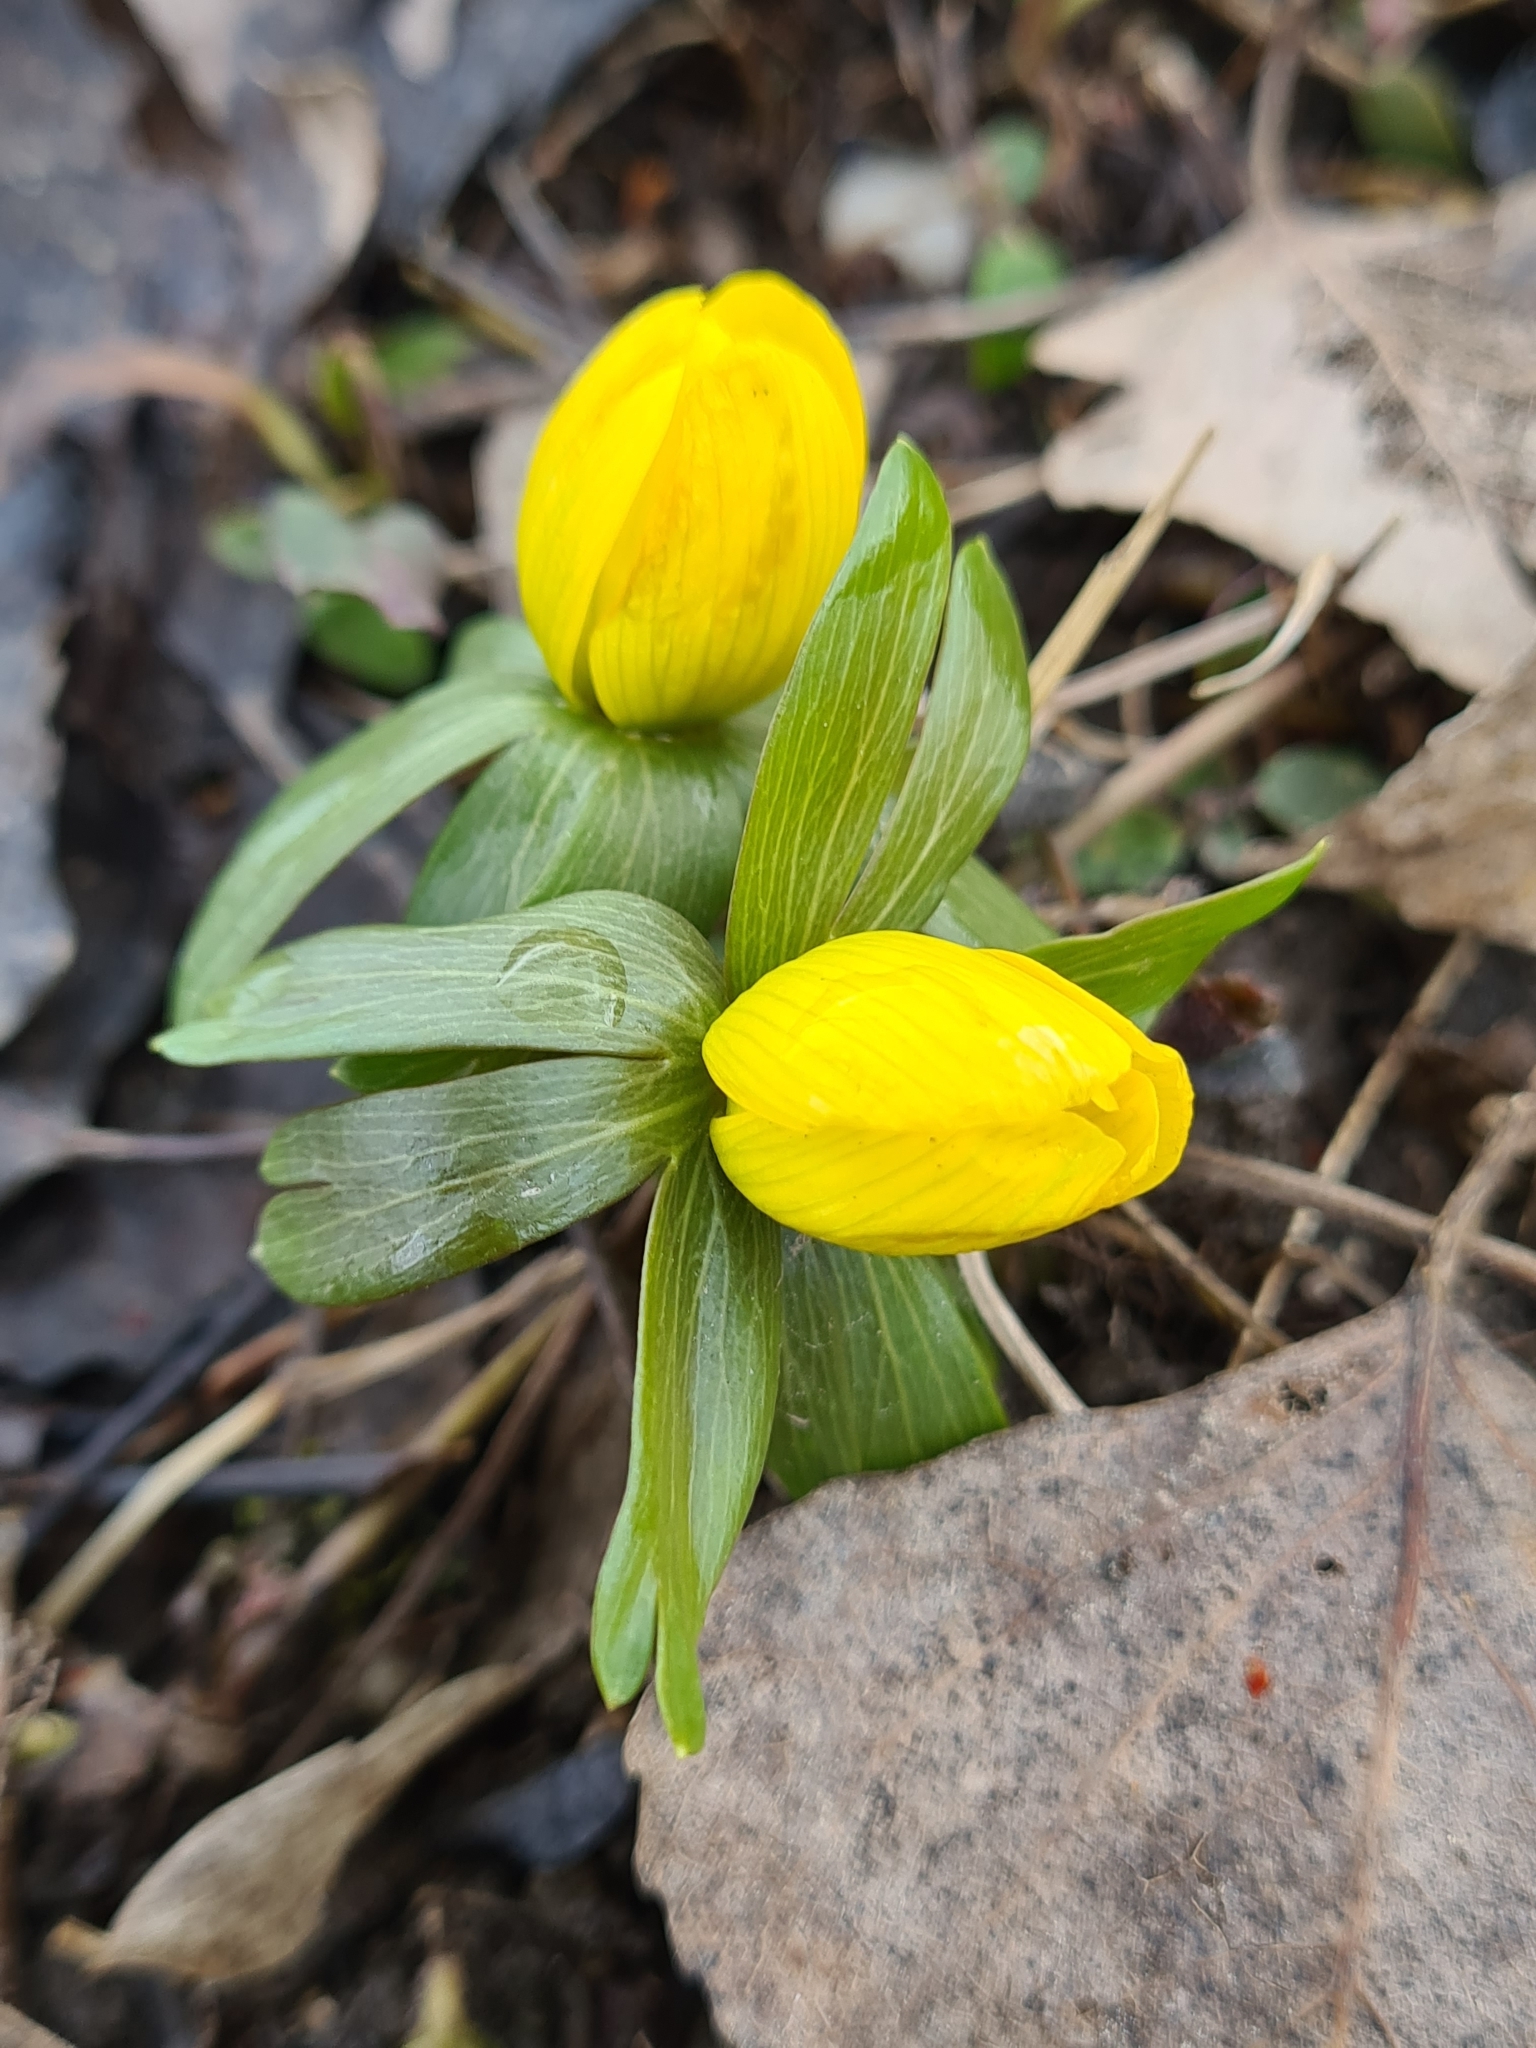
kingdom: Plantae
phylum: Tracheophyta
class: Magnoliopsida
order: Ranunculales
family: Ranunculaceae
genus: Eranthis
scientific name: Eranthis hyemalis
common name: Winter aconite
